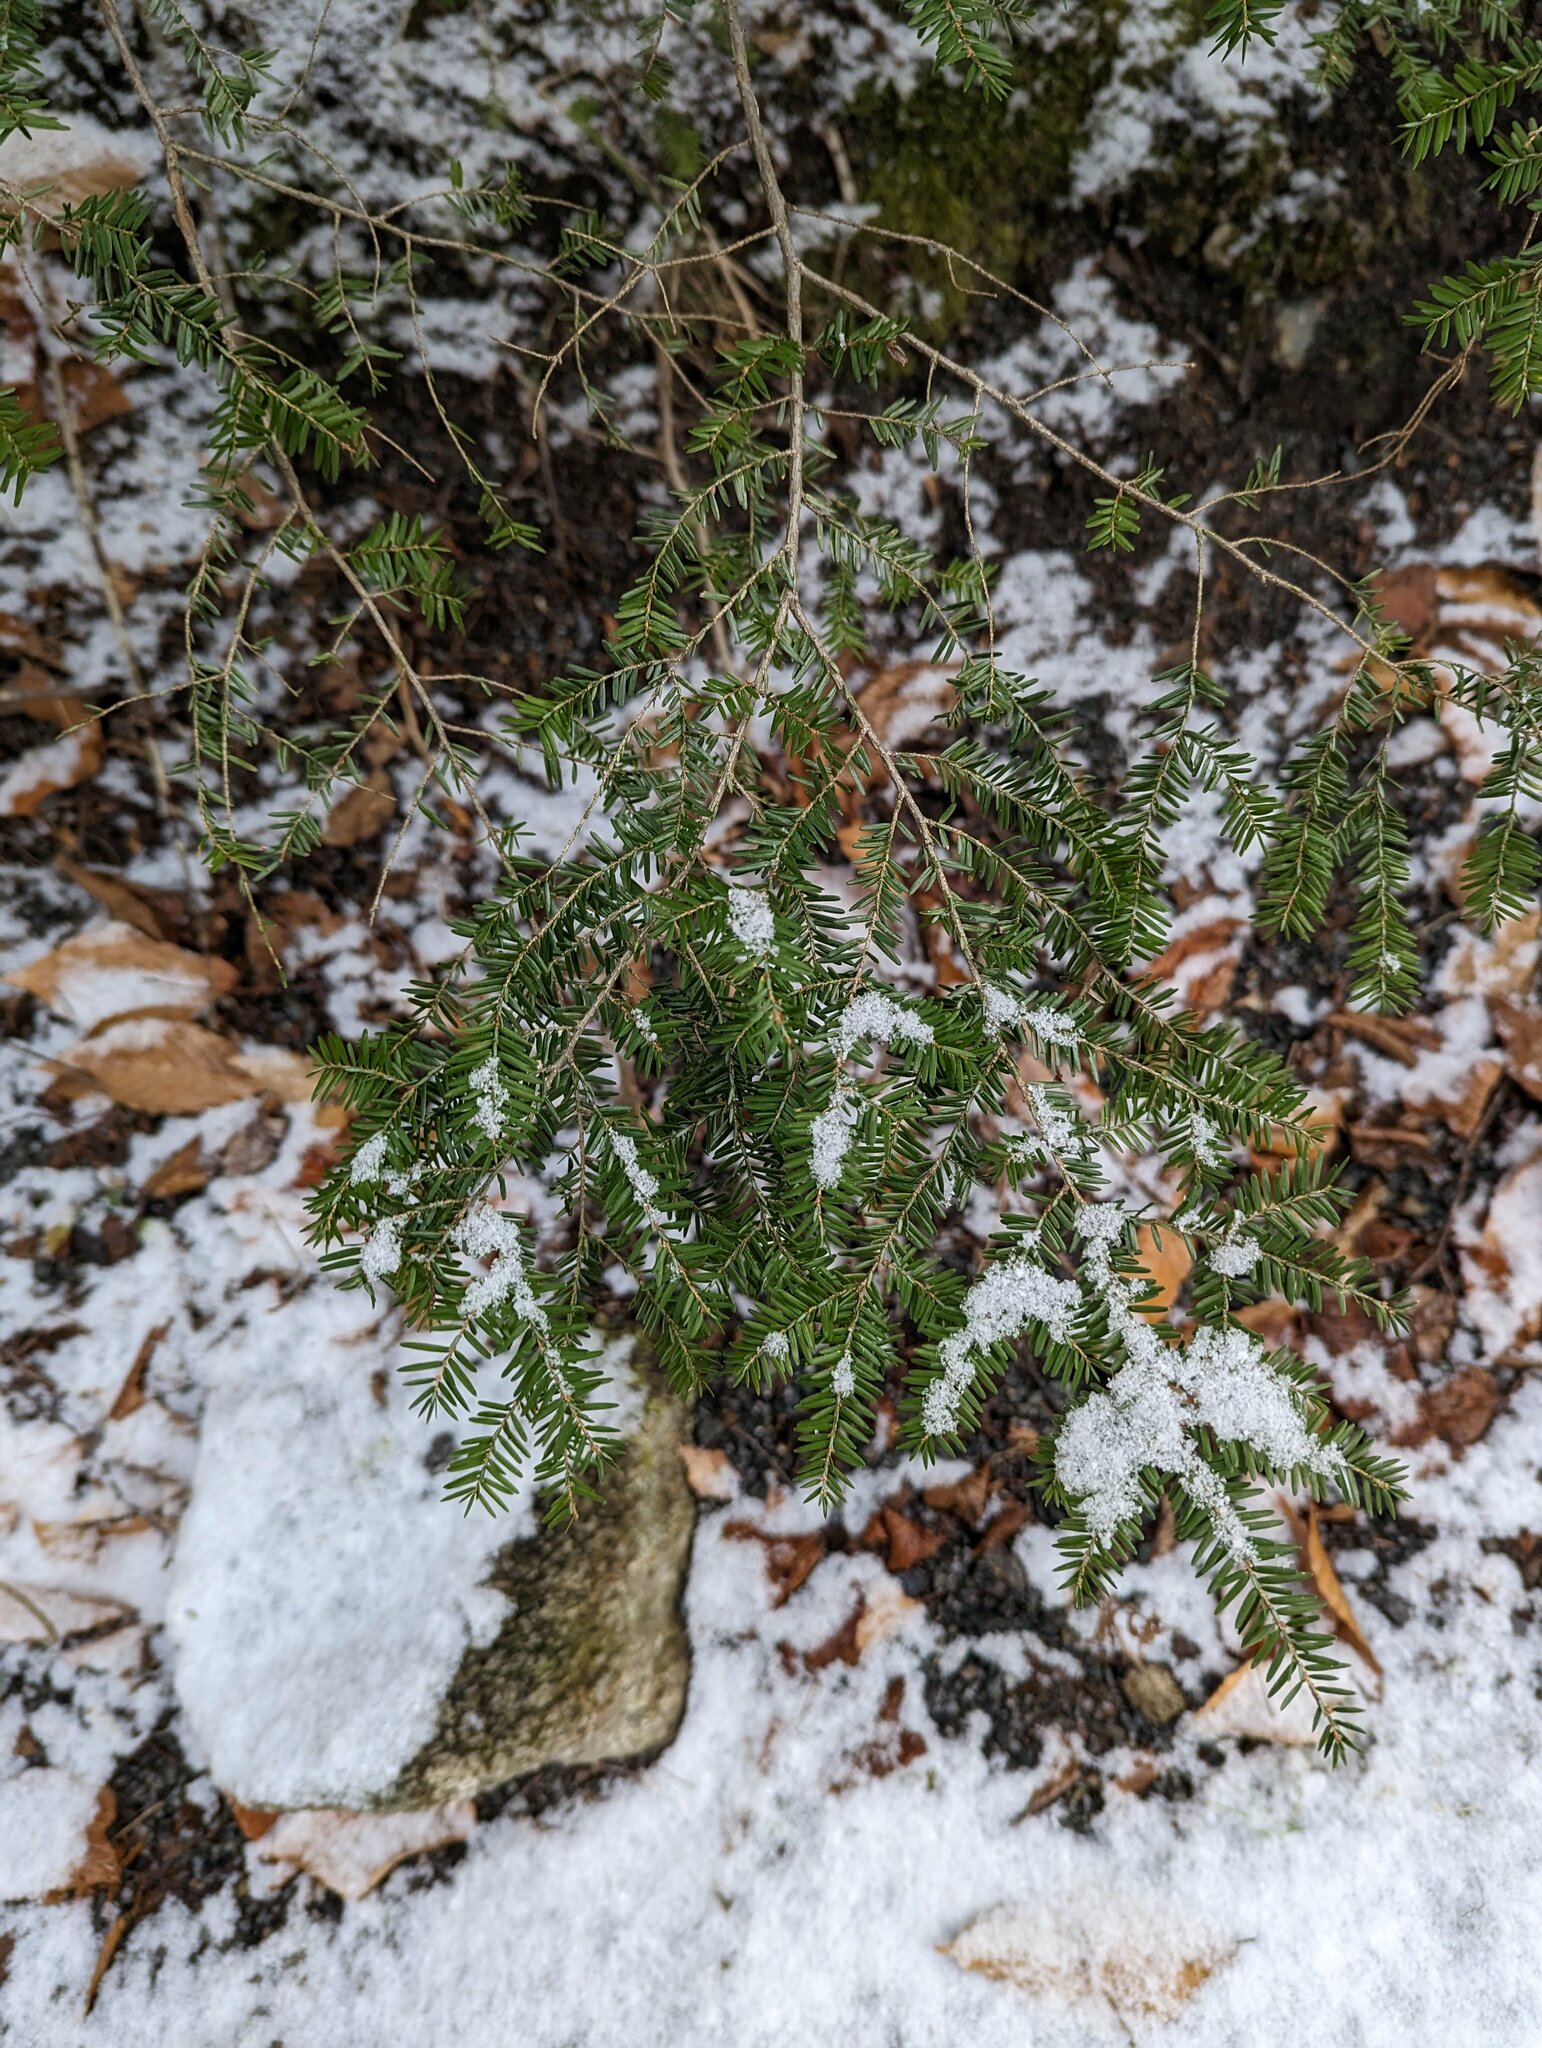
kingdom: Plantae
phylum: Tracheophyta
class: Pinopsida
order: Pinales
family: Pinaceae
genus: Tsuga
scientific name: Tsuga canadensis
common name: Eastern hemlock
